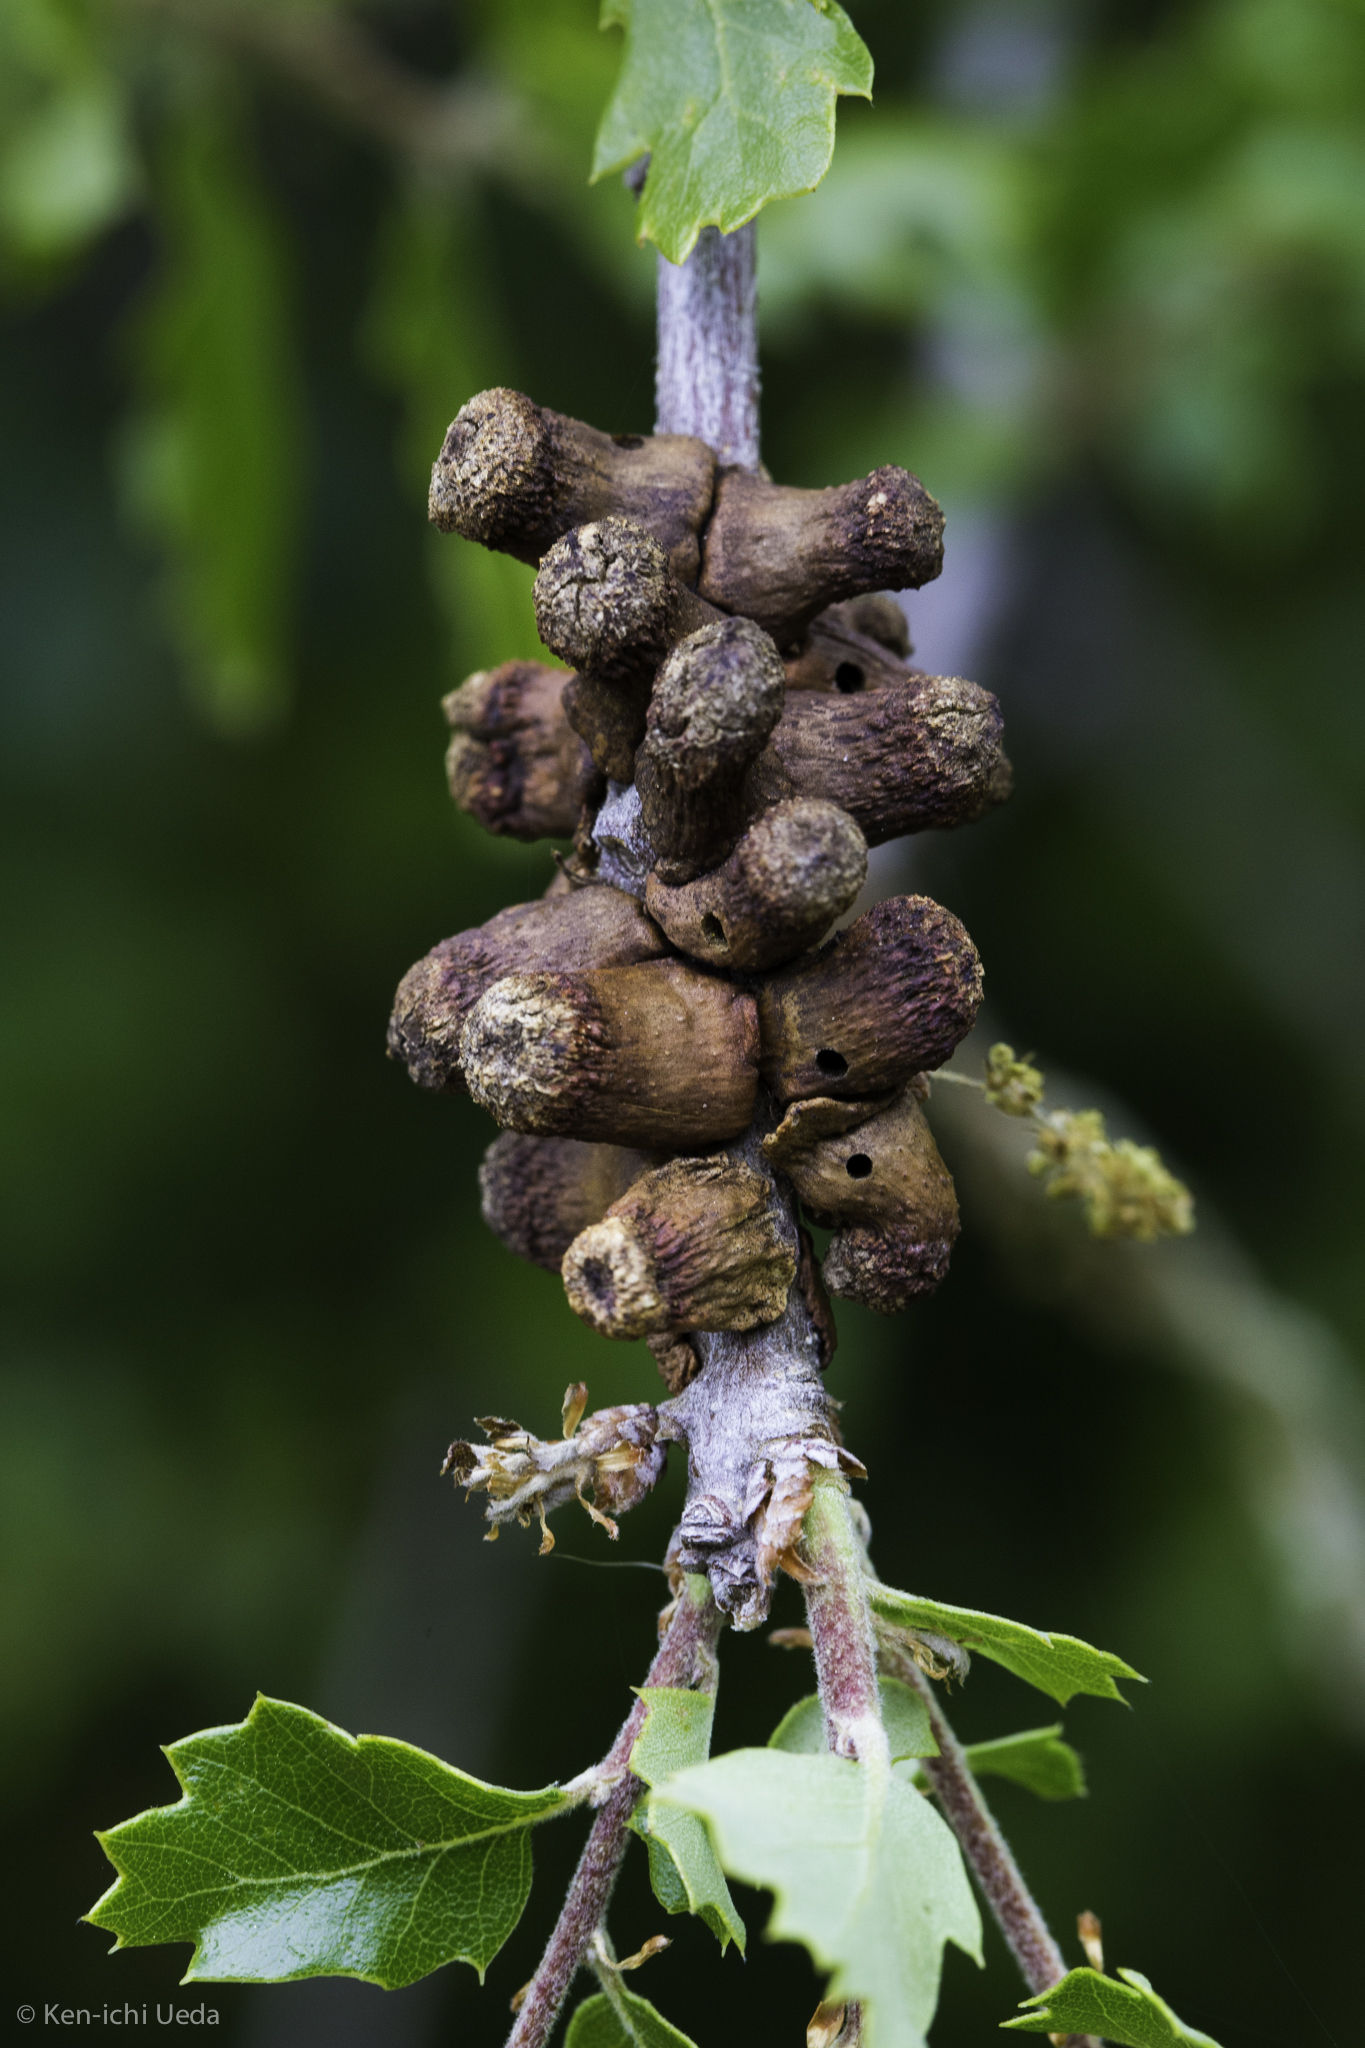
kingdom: Animalia
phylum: Arthropoda
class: Insecta
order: Hymenoptera
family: Cynipidae
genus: Disholcaspis
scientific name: Disholcaspis prehensa
